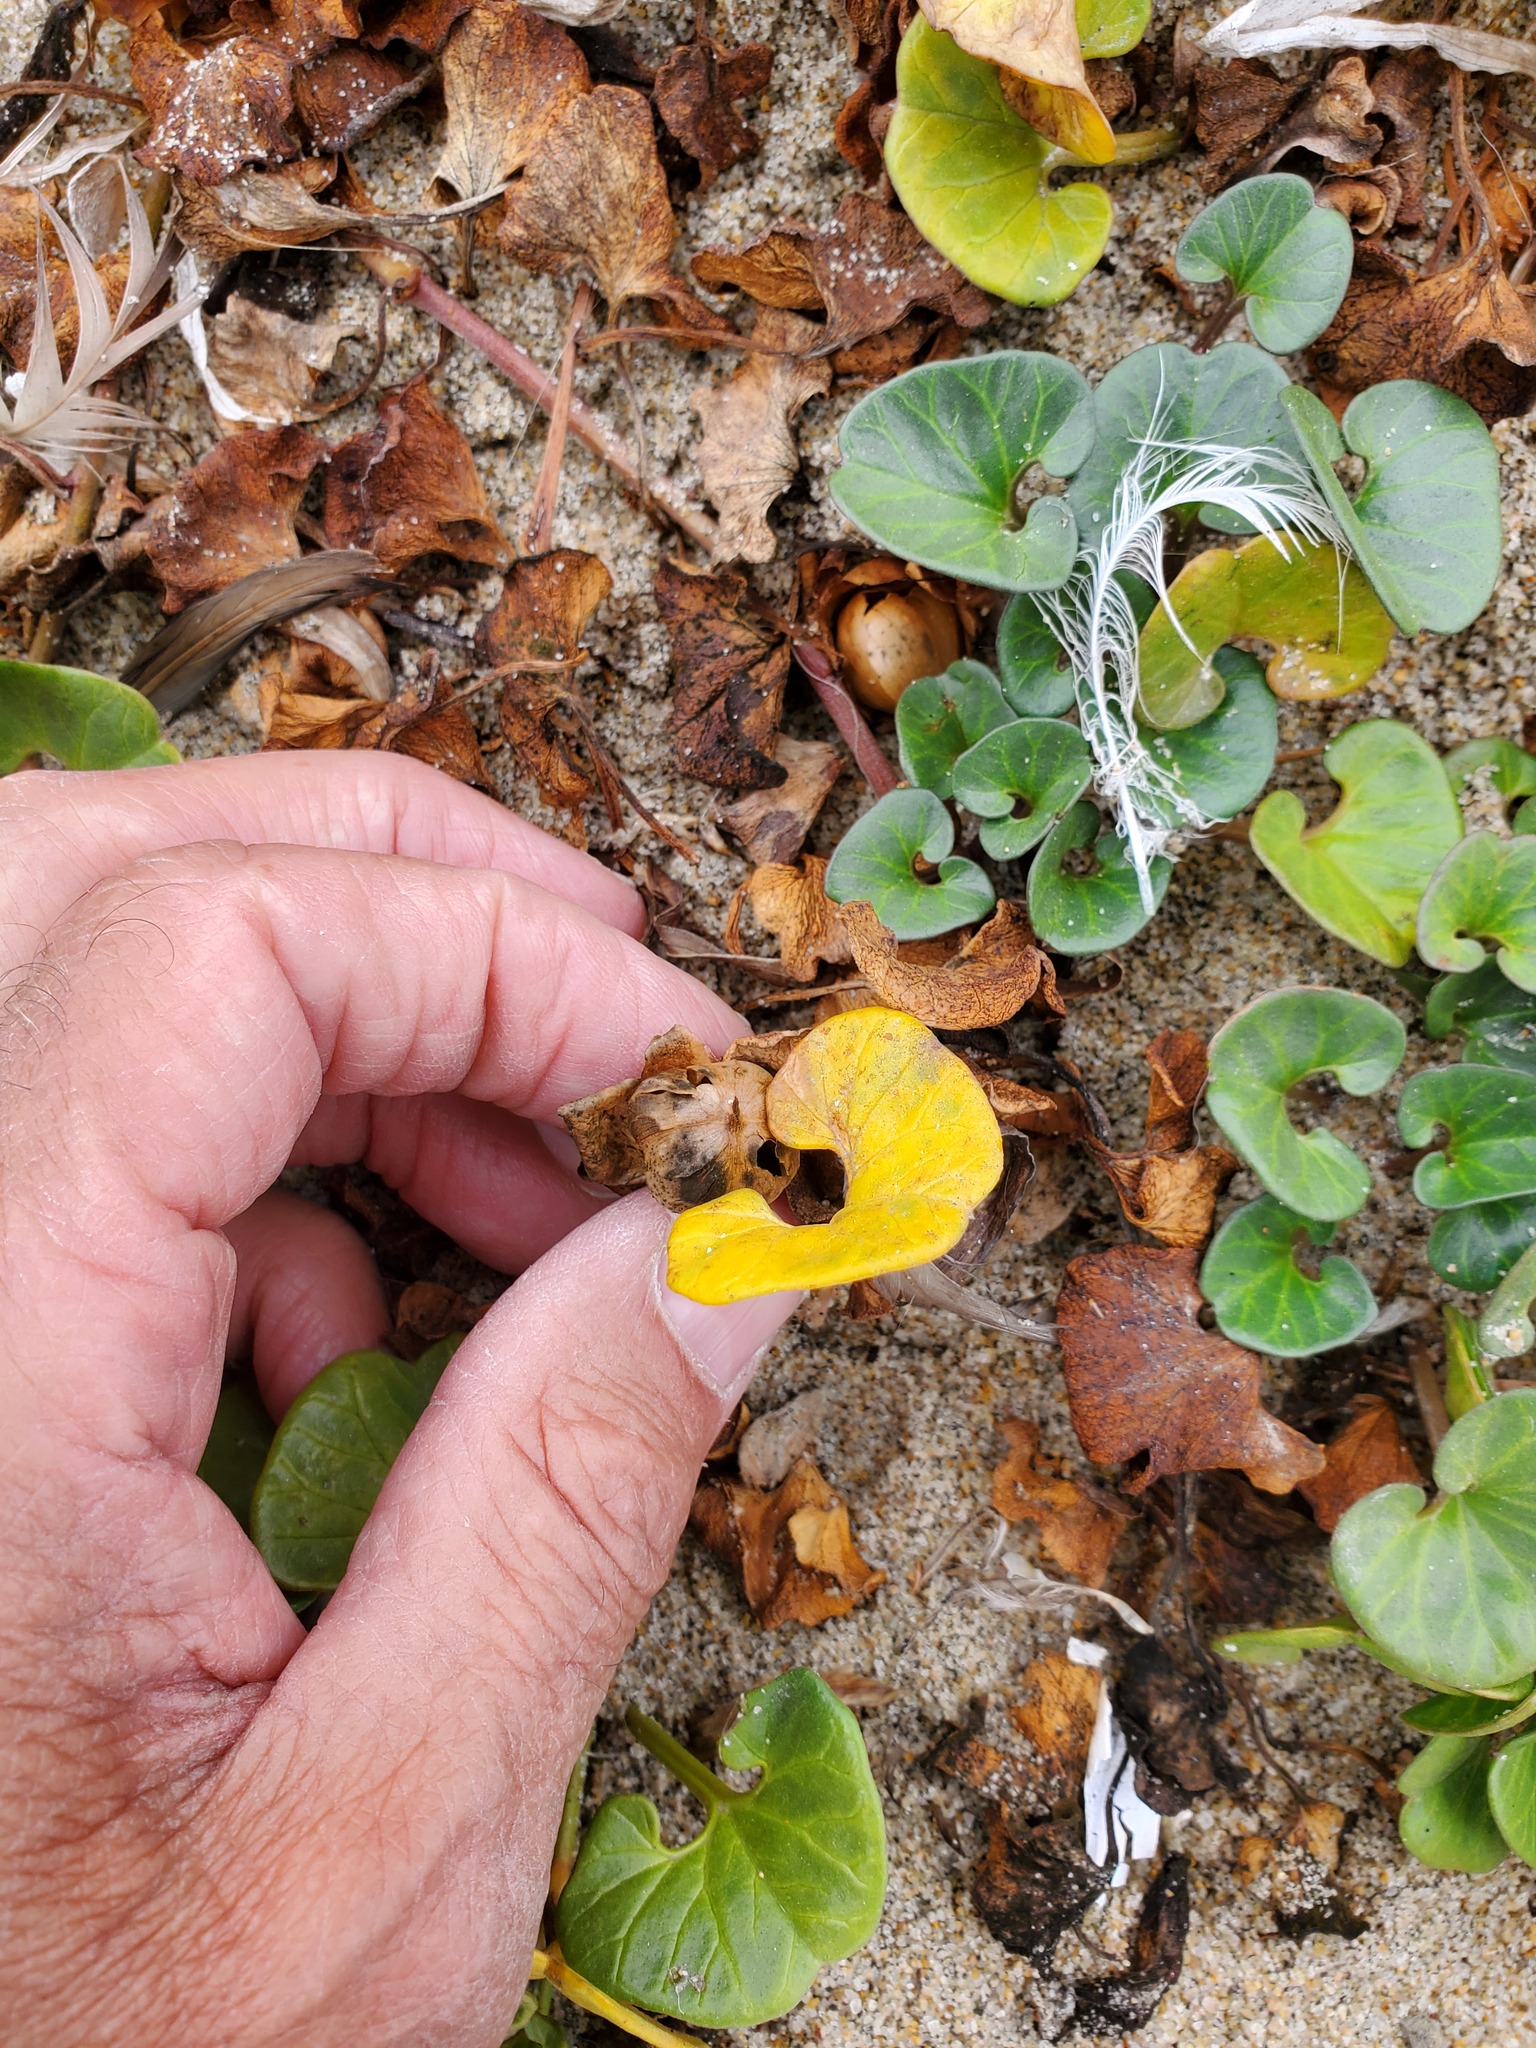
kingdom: Plantae
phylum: Tracheophyta
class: Magnoliopsida
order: Solanales
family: Convolvulaceae
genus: Calystegia
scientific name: Calystegia soldanella
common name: Sea bindweed
